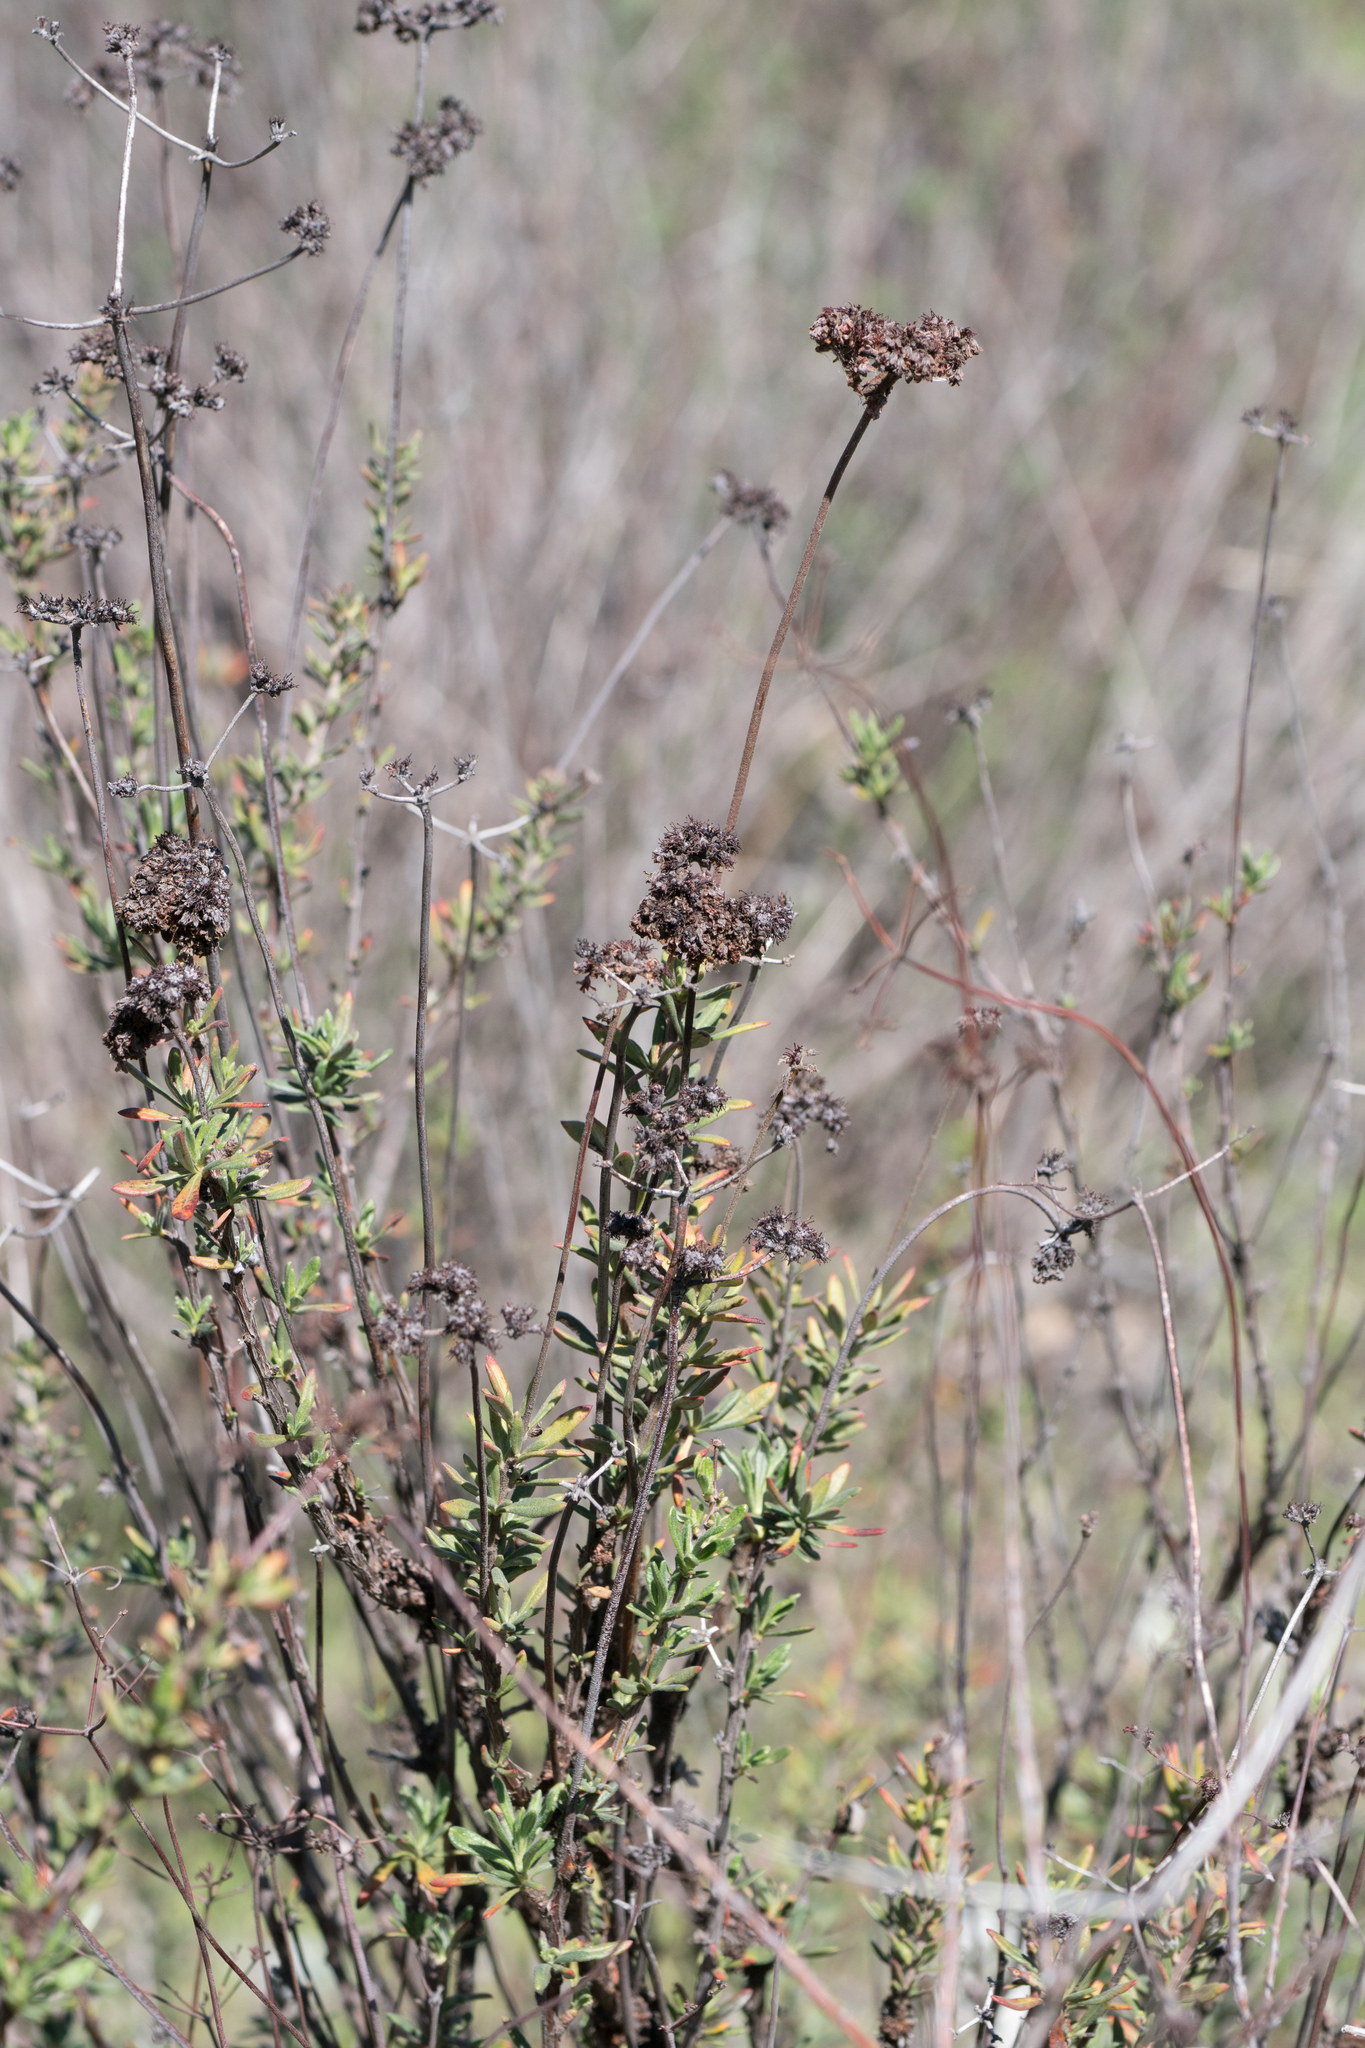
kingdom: Plantae
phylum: Tracheophyta
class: Magnoliopsida
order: Caryophyllales
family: Polygonaceae
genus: Eriogonum
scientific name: Eriogonum fasciculatum
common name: California wild buckwheat
